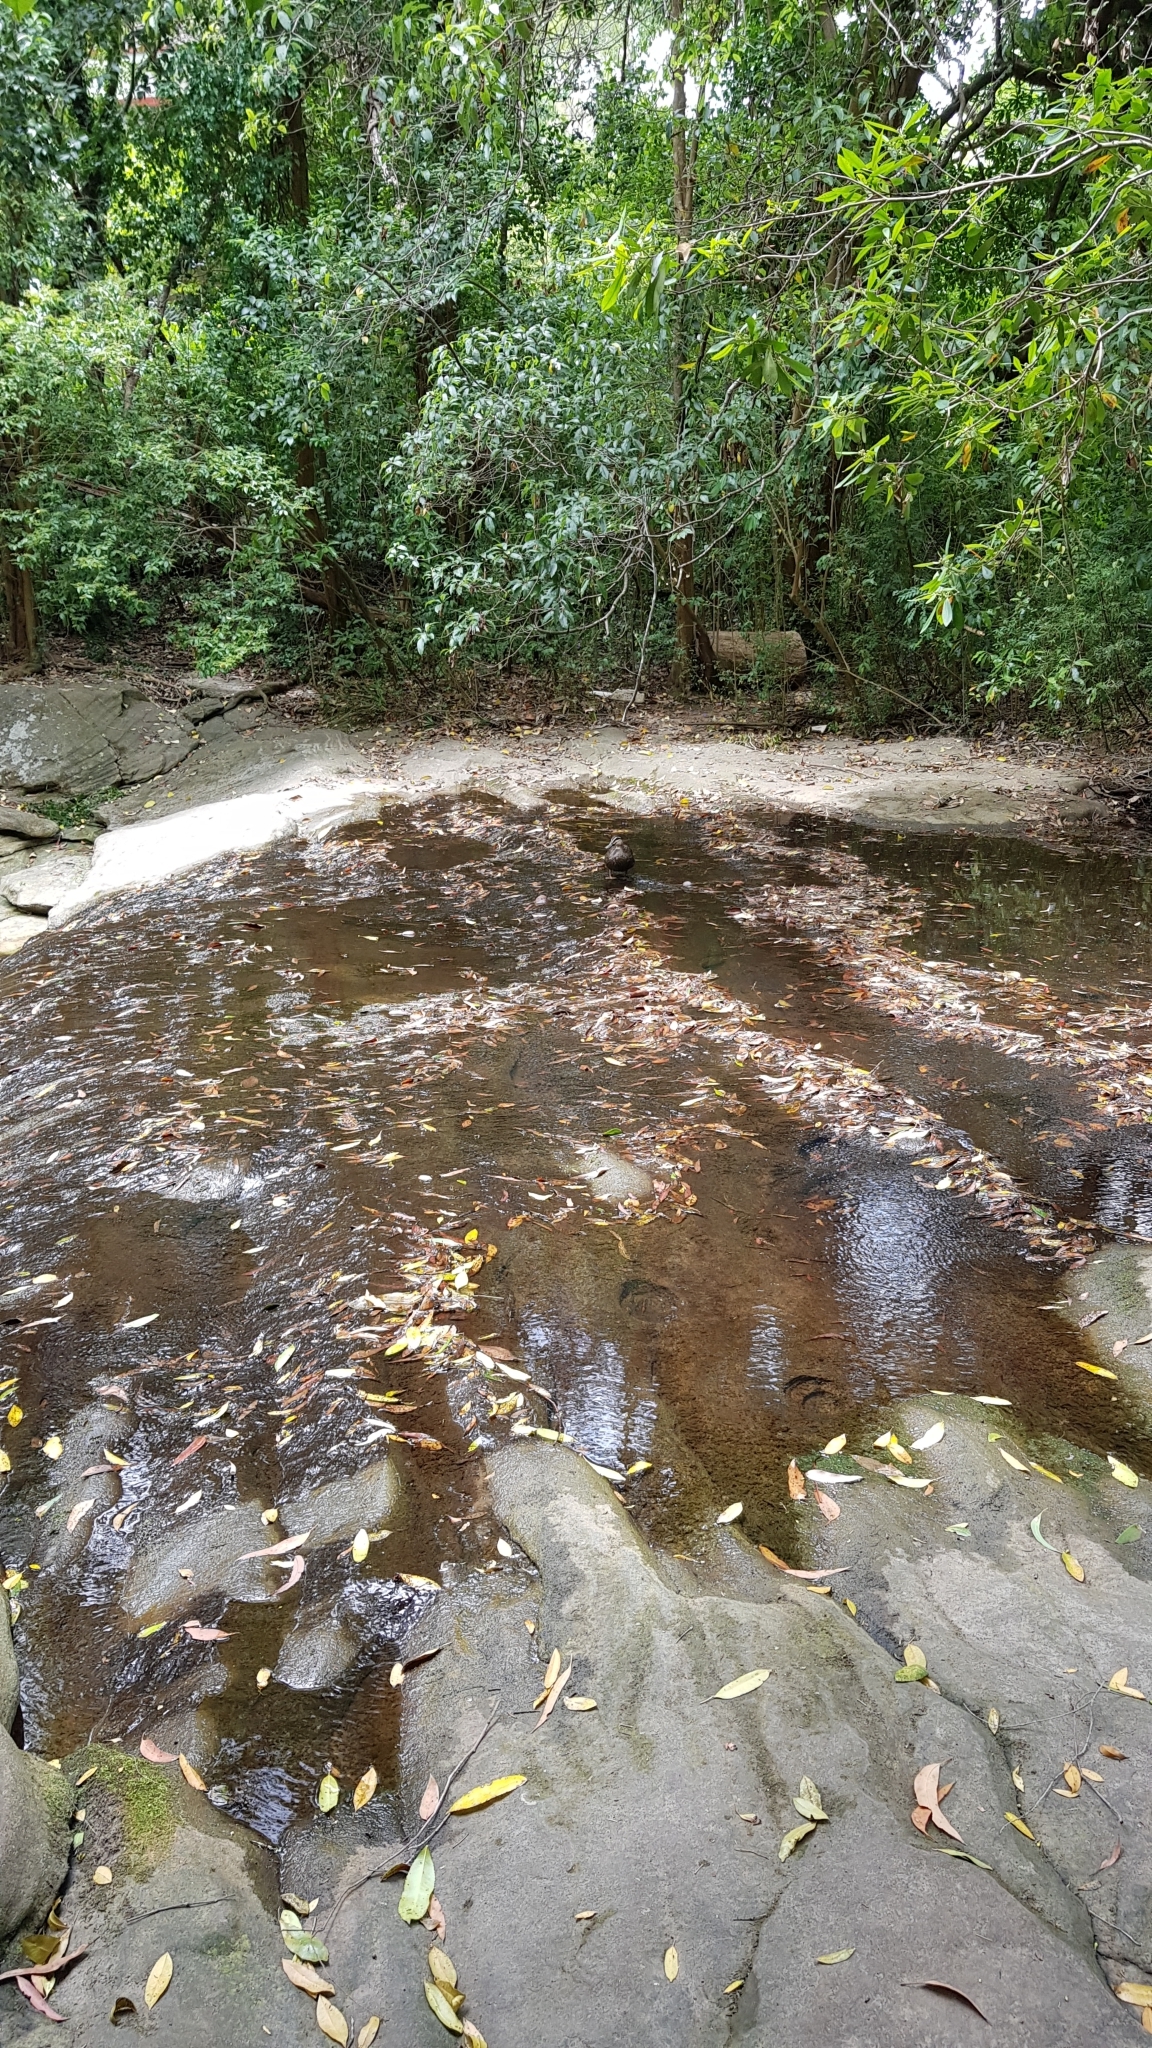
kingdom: Animalia
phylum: Chordata
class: Aves
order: Anseriformes
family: Anatidae
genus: Anas
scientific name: Anas superciliosa
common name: Pacific black duck
